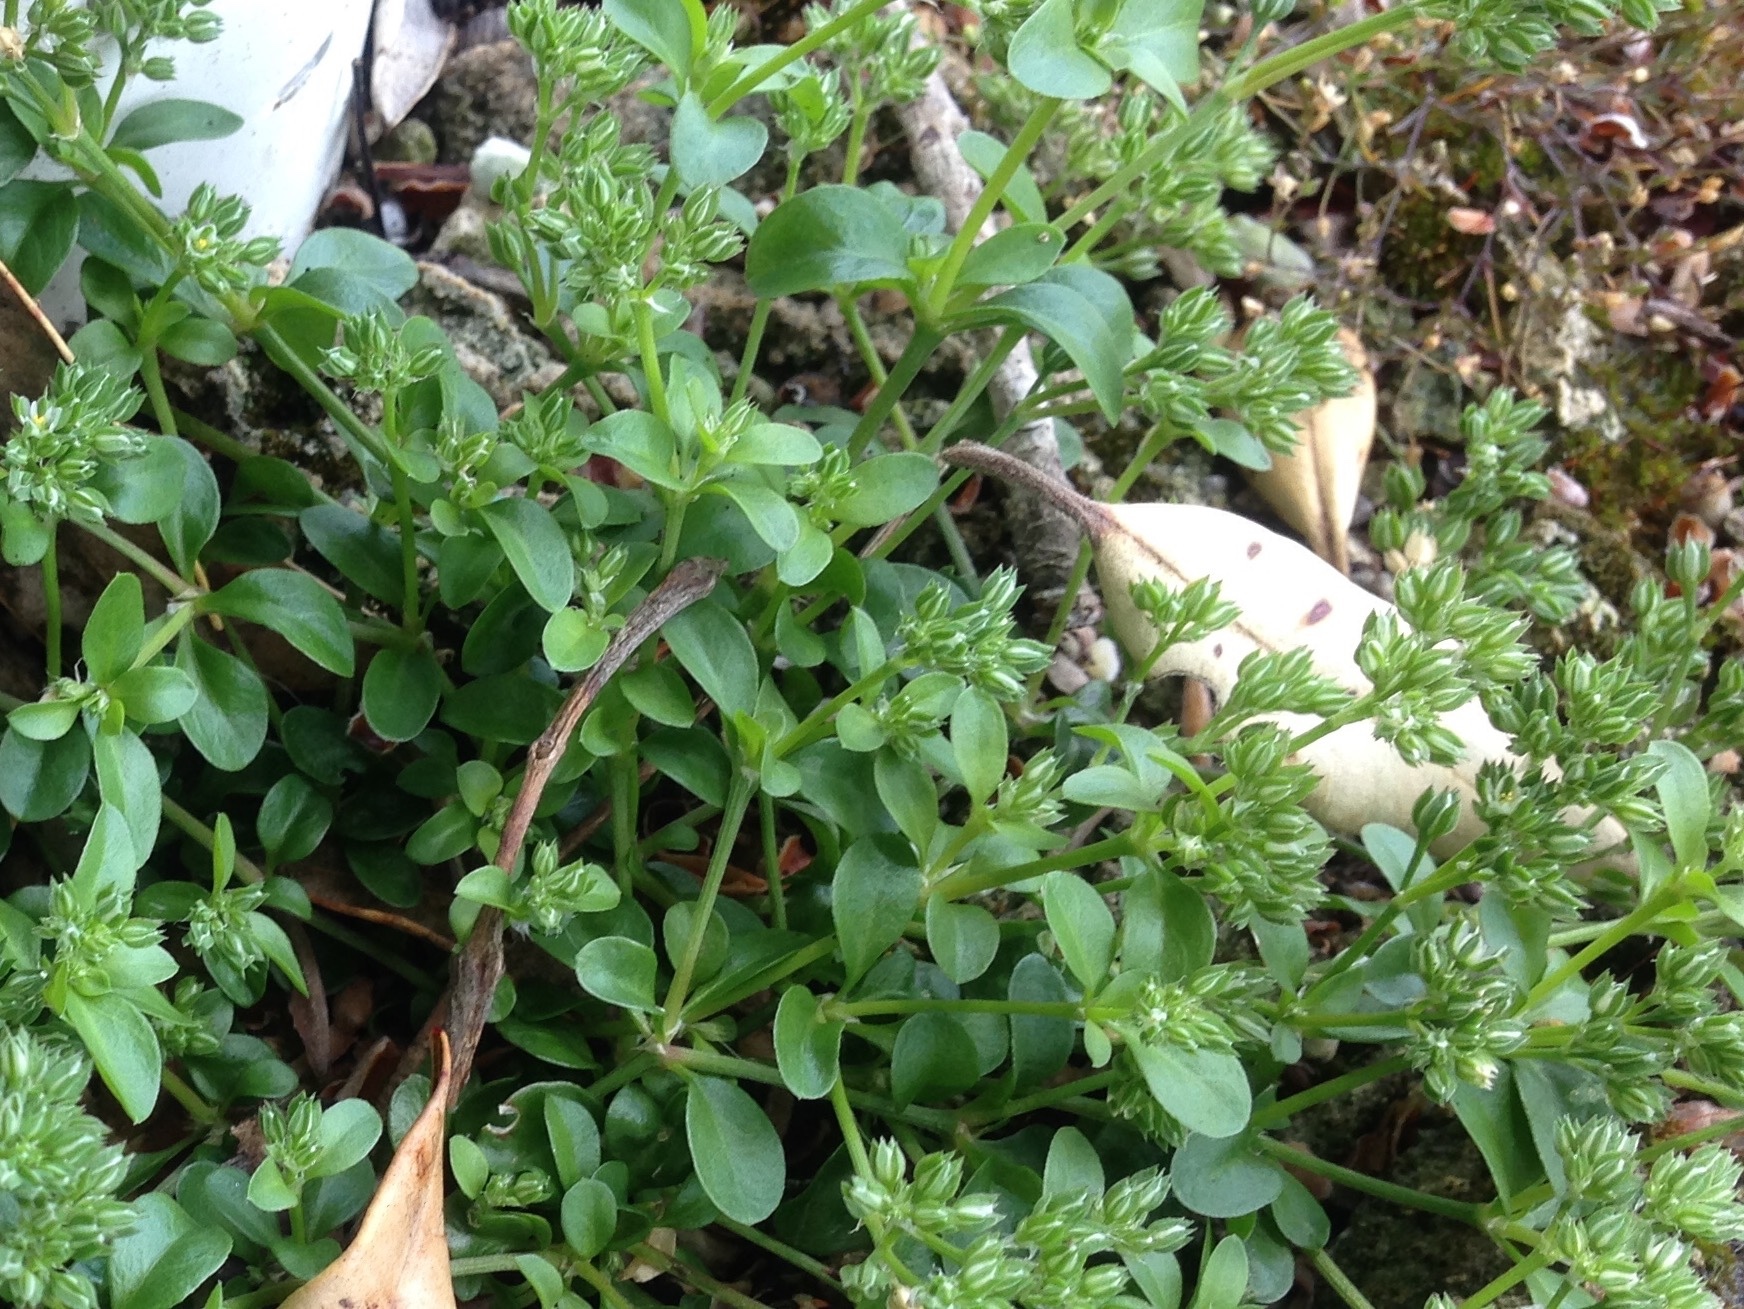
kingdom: Plantae
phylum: Tracheophyta
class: Magnoliopsida
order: Caryophyllales
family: Caryophyllaceae
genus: Polycarpon
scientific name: Polycarpon tetraphyllum
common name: Four-leaved all-seed
